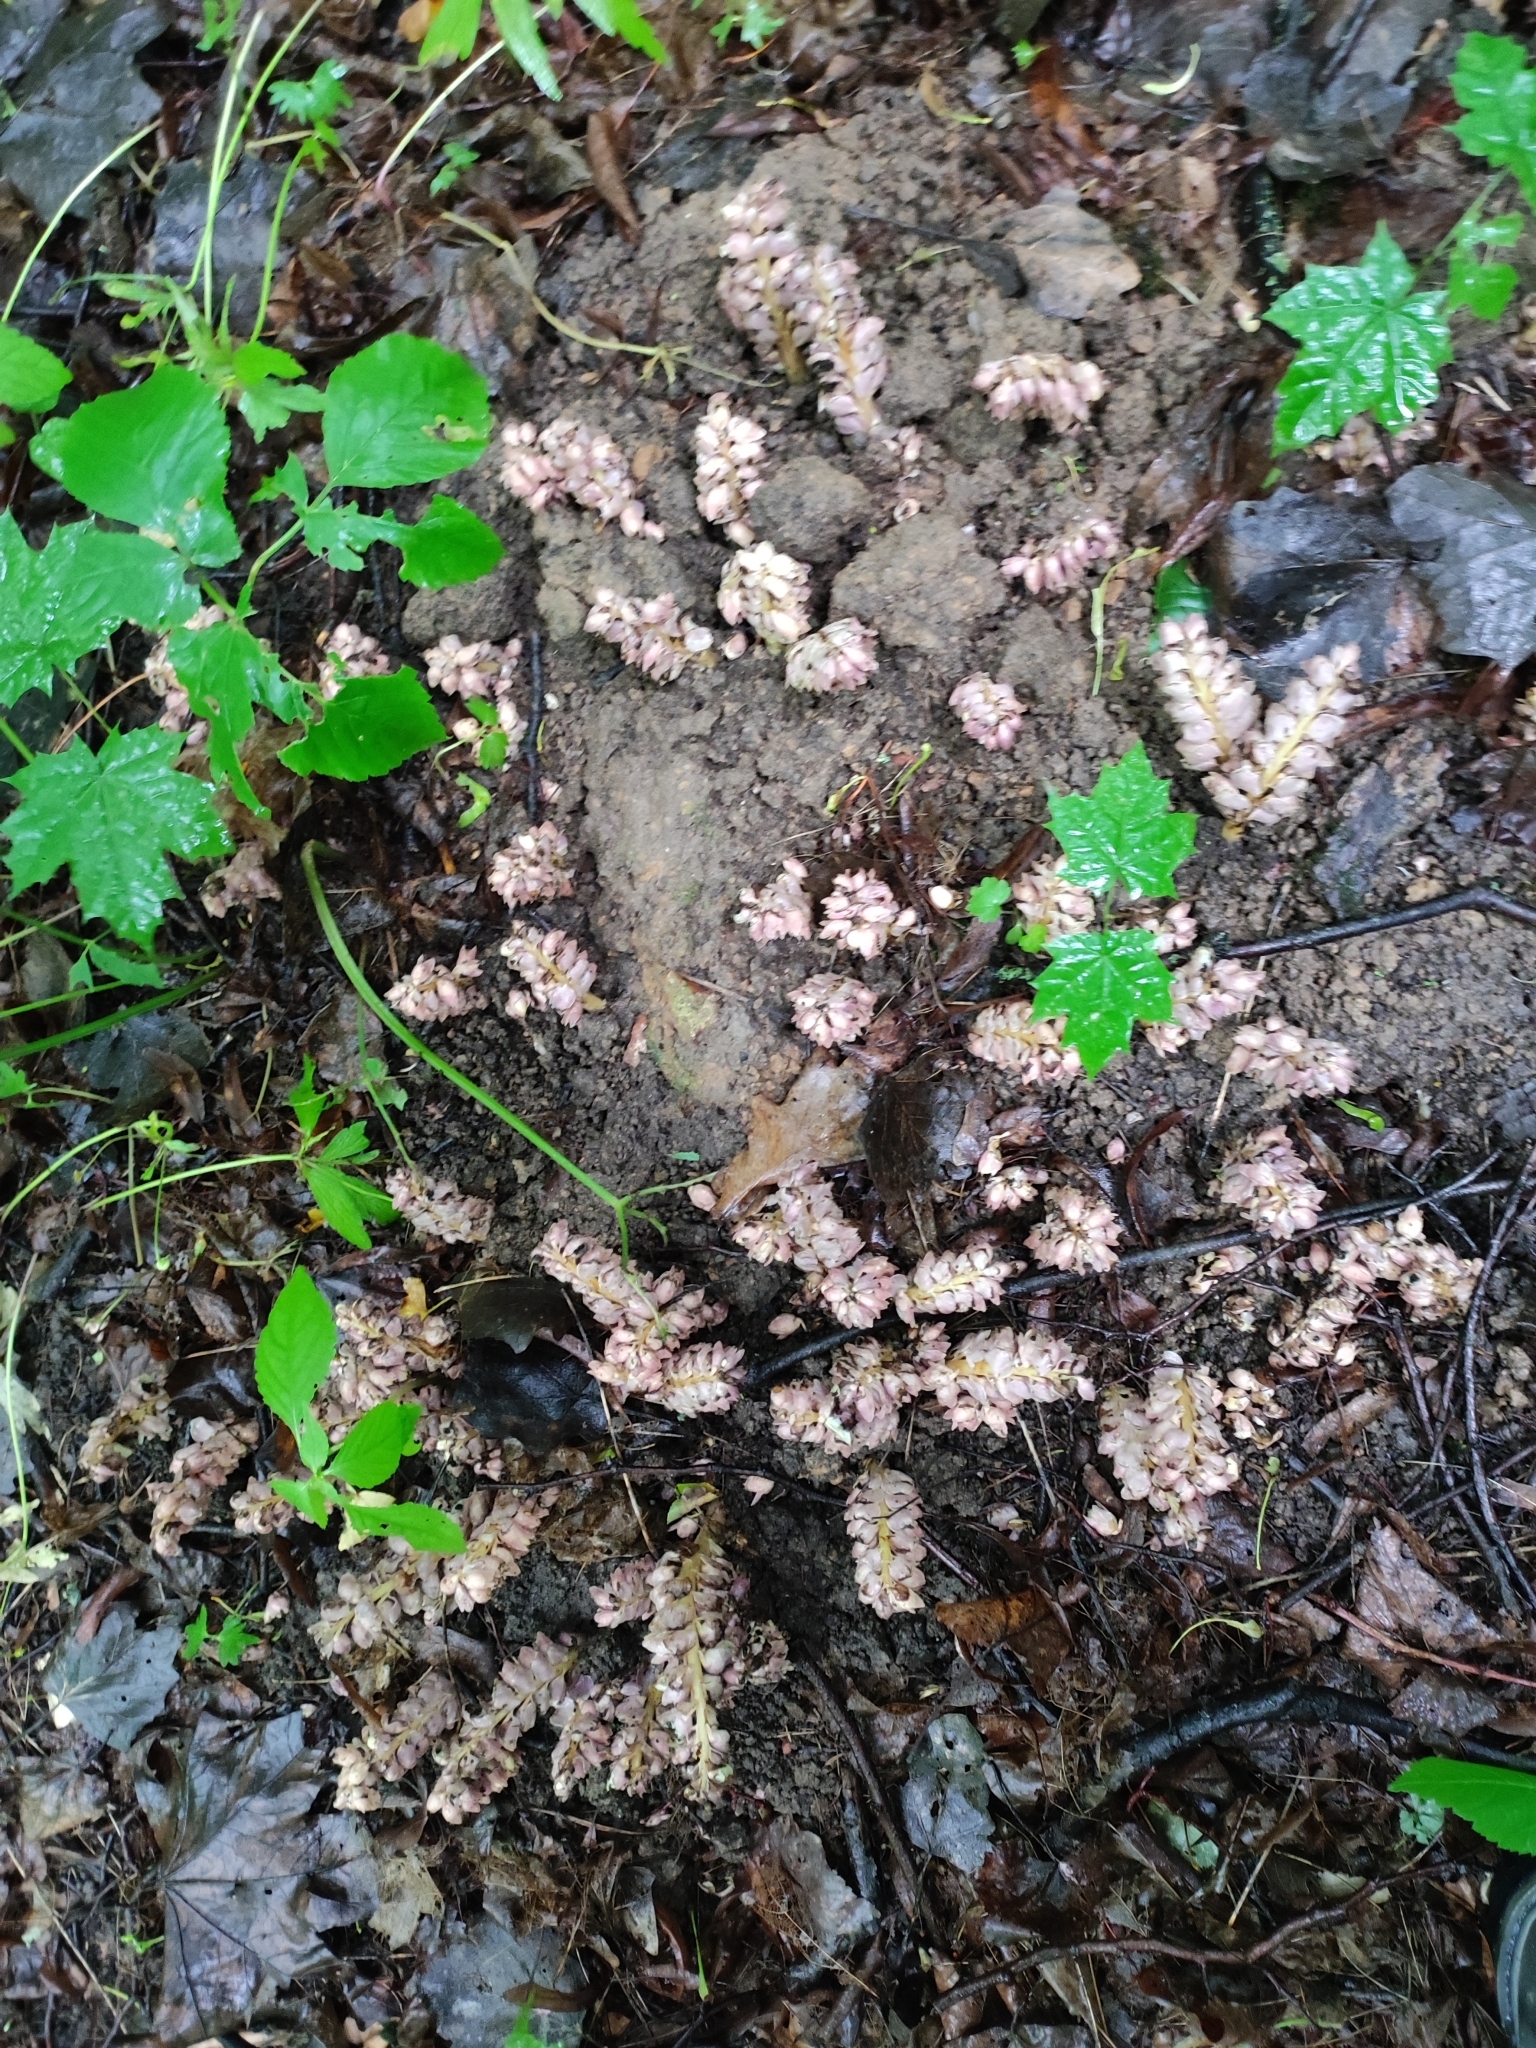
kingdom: Plantae
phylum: Tracheophyta
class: Magnoliopsida
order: Lamiales
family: Orobanchaceae
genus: Lathraea
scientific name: Lathraea squamaria
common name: Toothwort
